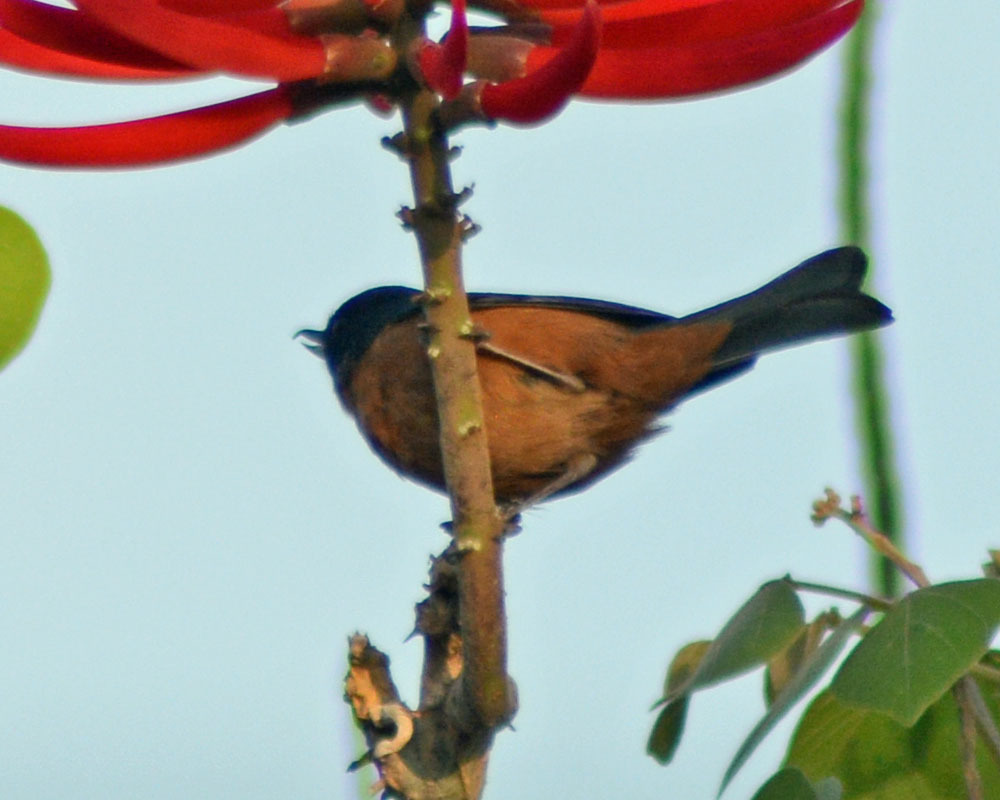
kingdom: Animalia
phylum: Chordata
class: Aves
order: Passeriformes
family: Thraupidae
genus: Diglossa
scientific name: Diglossa baritula
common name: Cinnamon-bellied flowerpiercer
